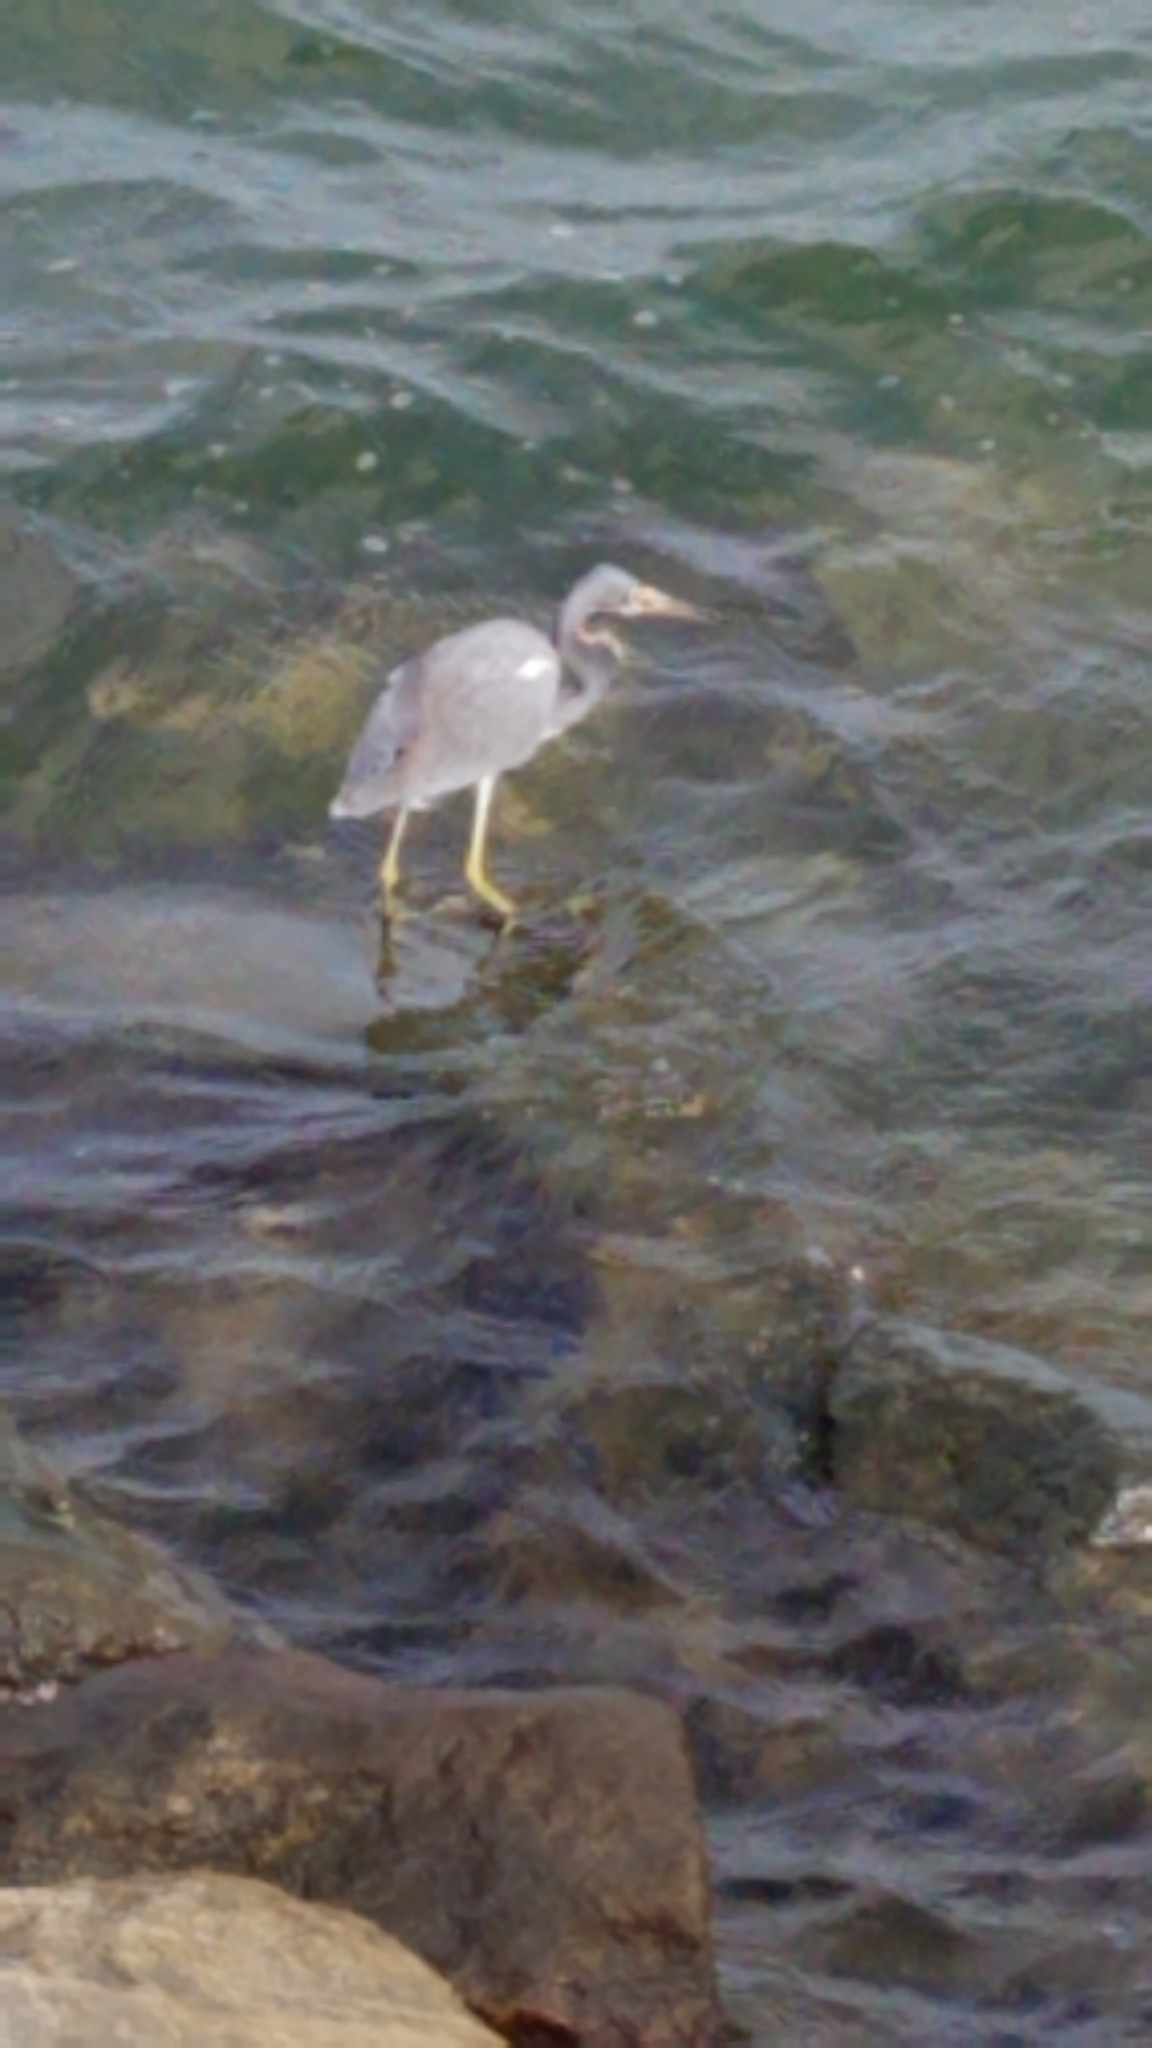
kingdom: Animalia
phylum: Chordata
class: Aves
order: Pelecaniformes
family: Ardeidae
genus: Egretta
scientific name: Egretta tricolor
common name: Tricolored heron
